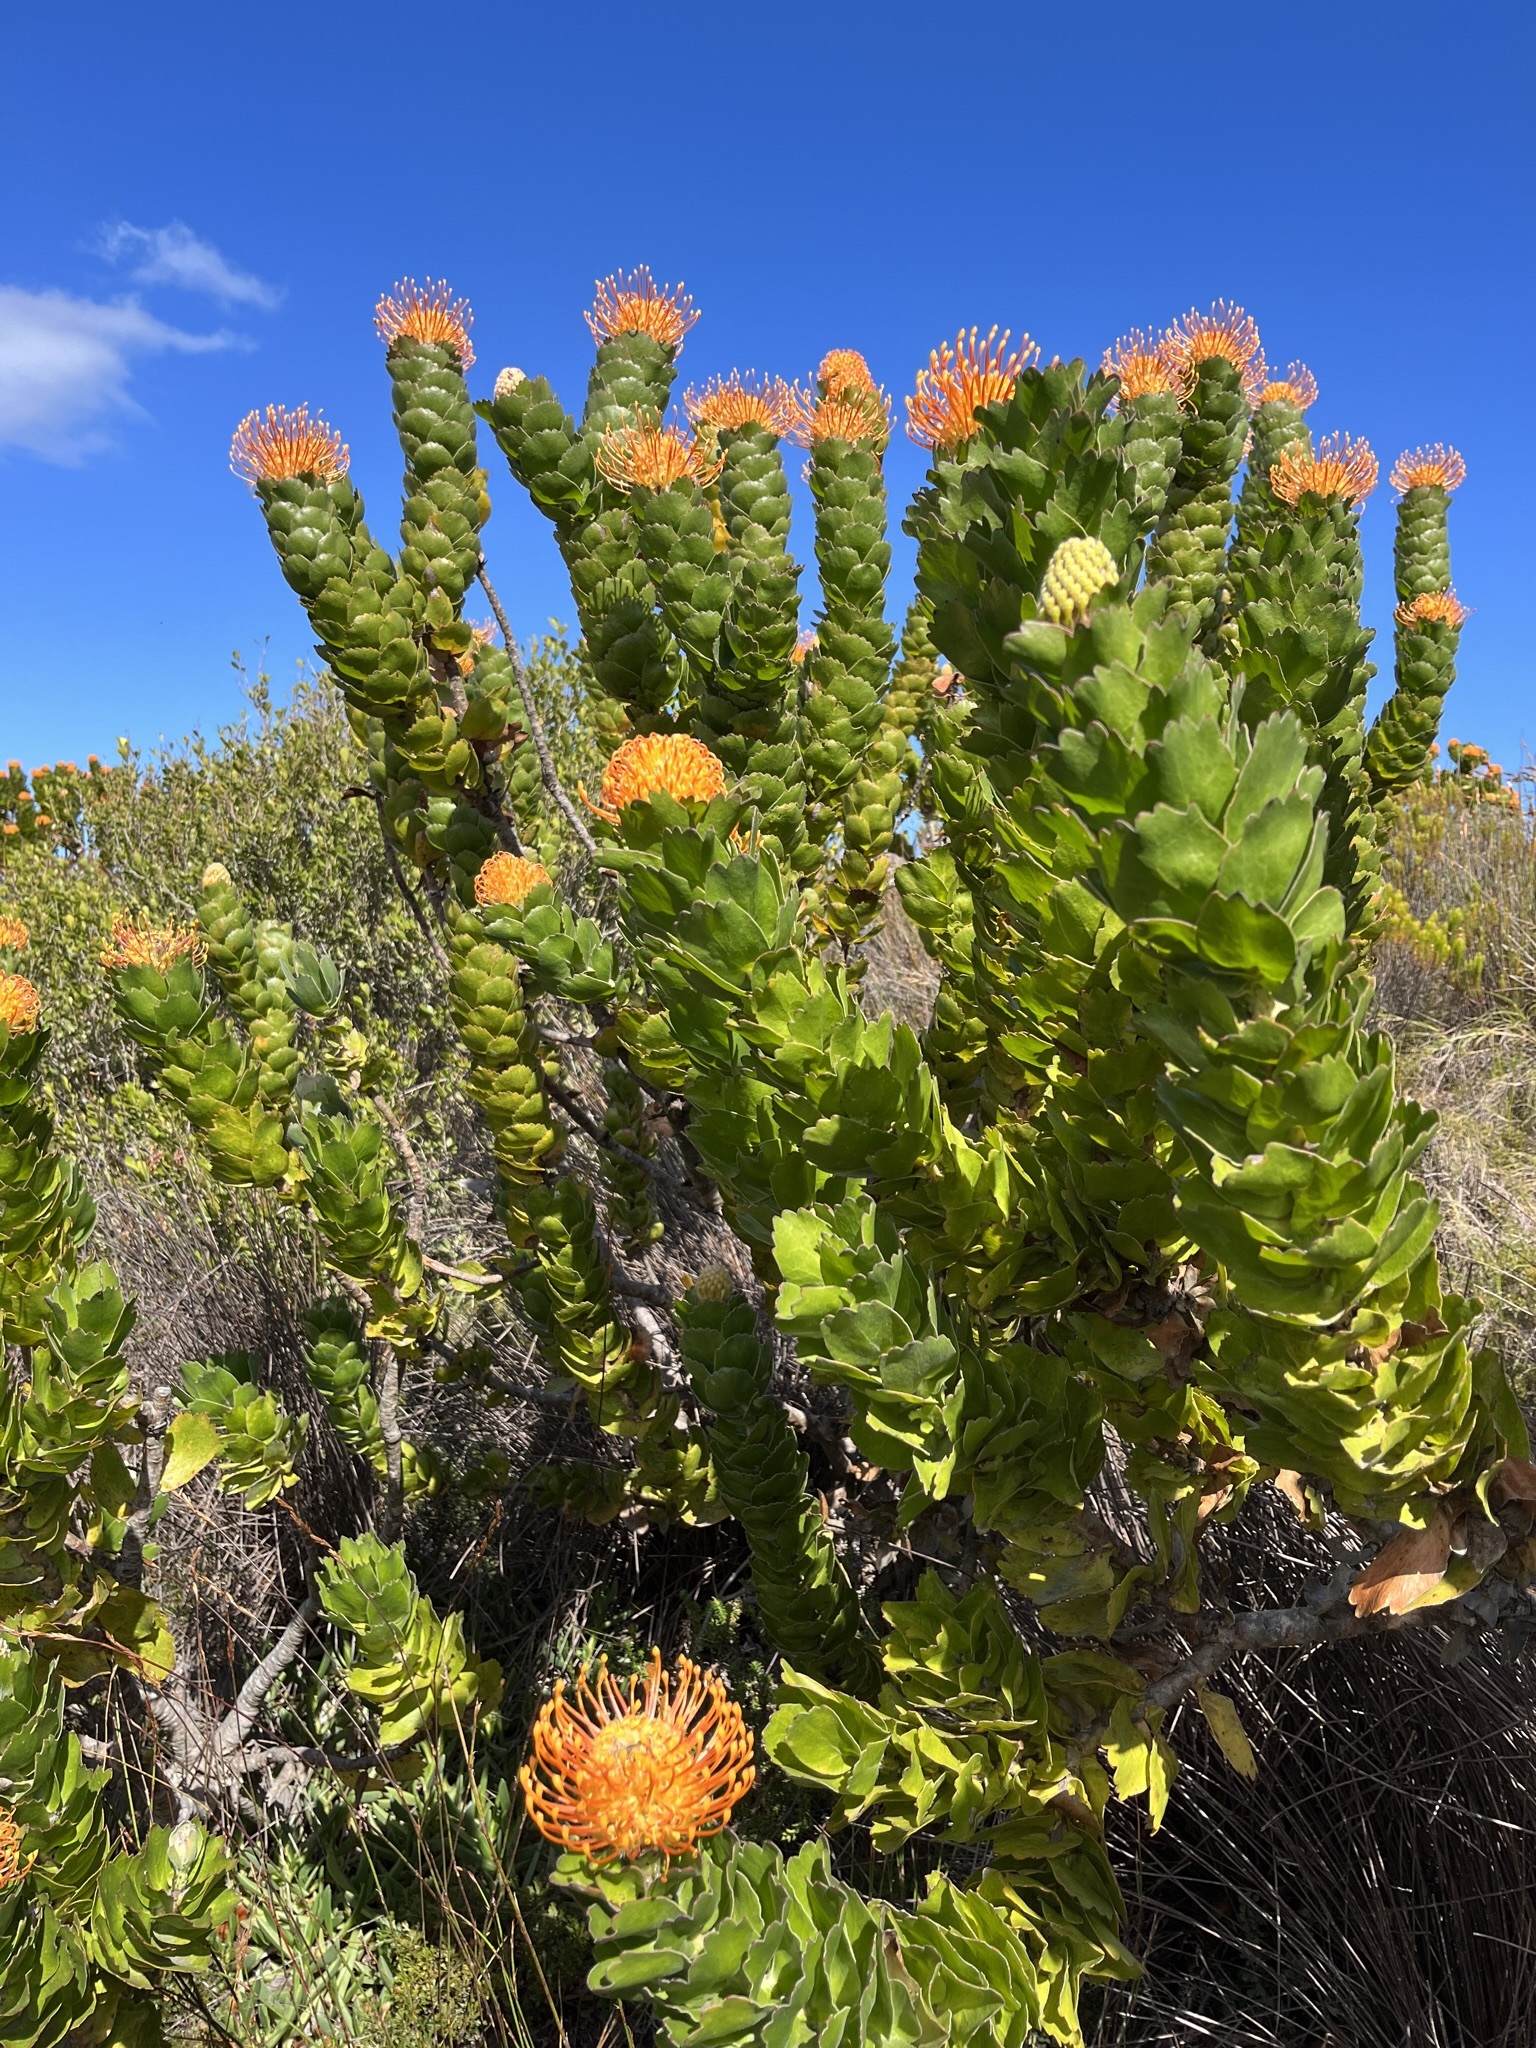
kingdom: Plantae
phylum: Tracheophyta
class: Magnoliopsida
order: Proteales
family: Proteaceae
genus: Leucospermum
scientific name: Leucospermum patersonii
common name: False tree pincushion
